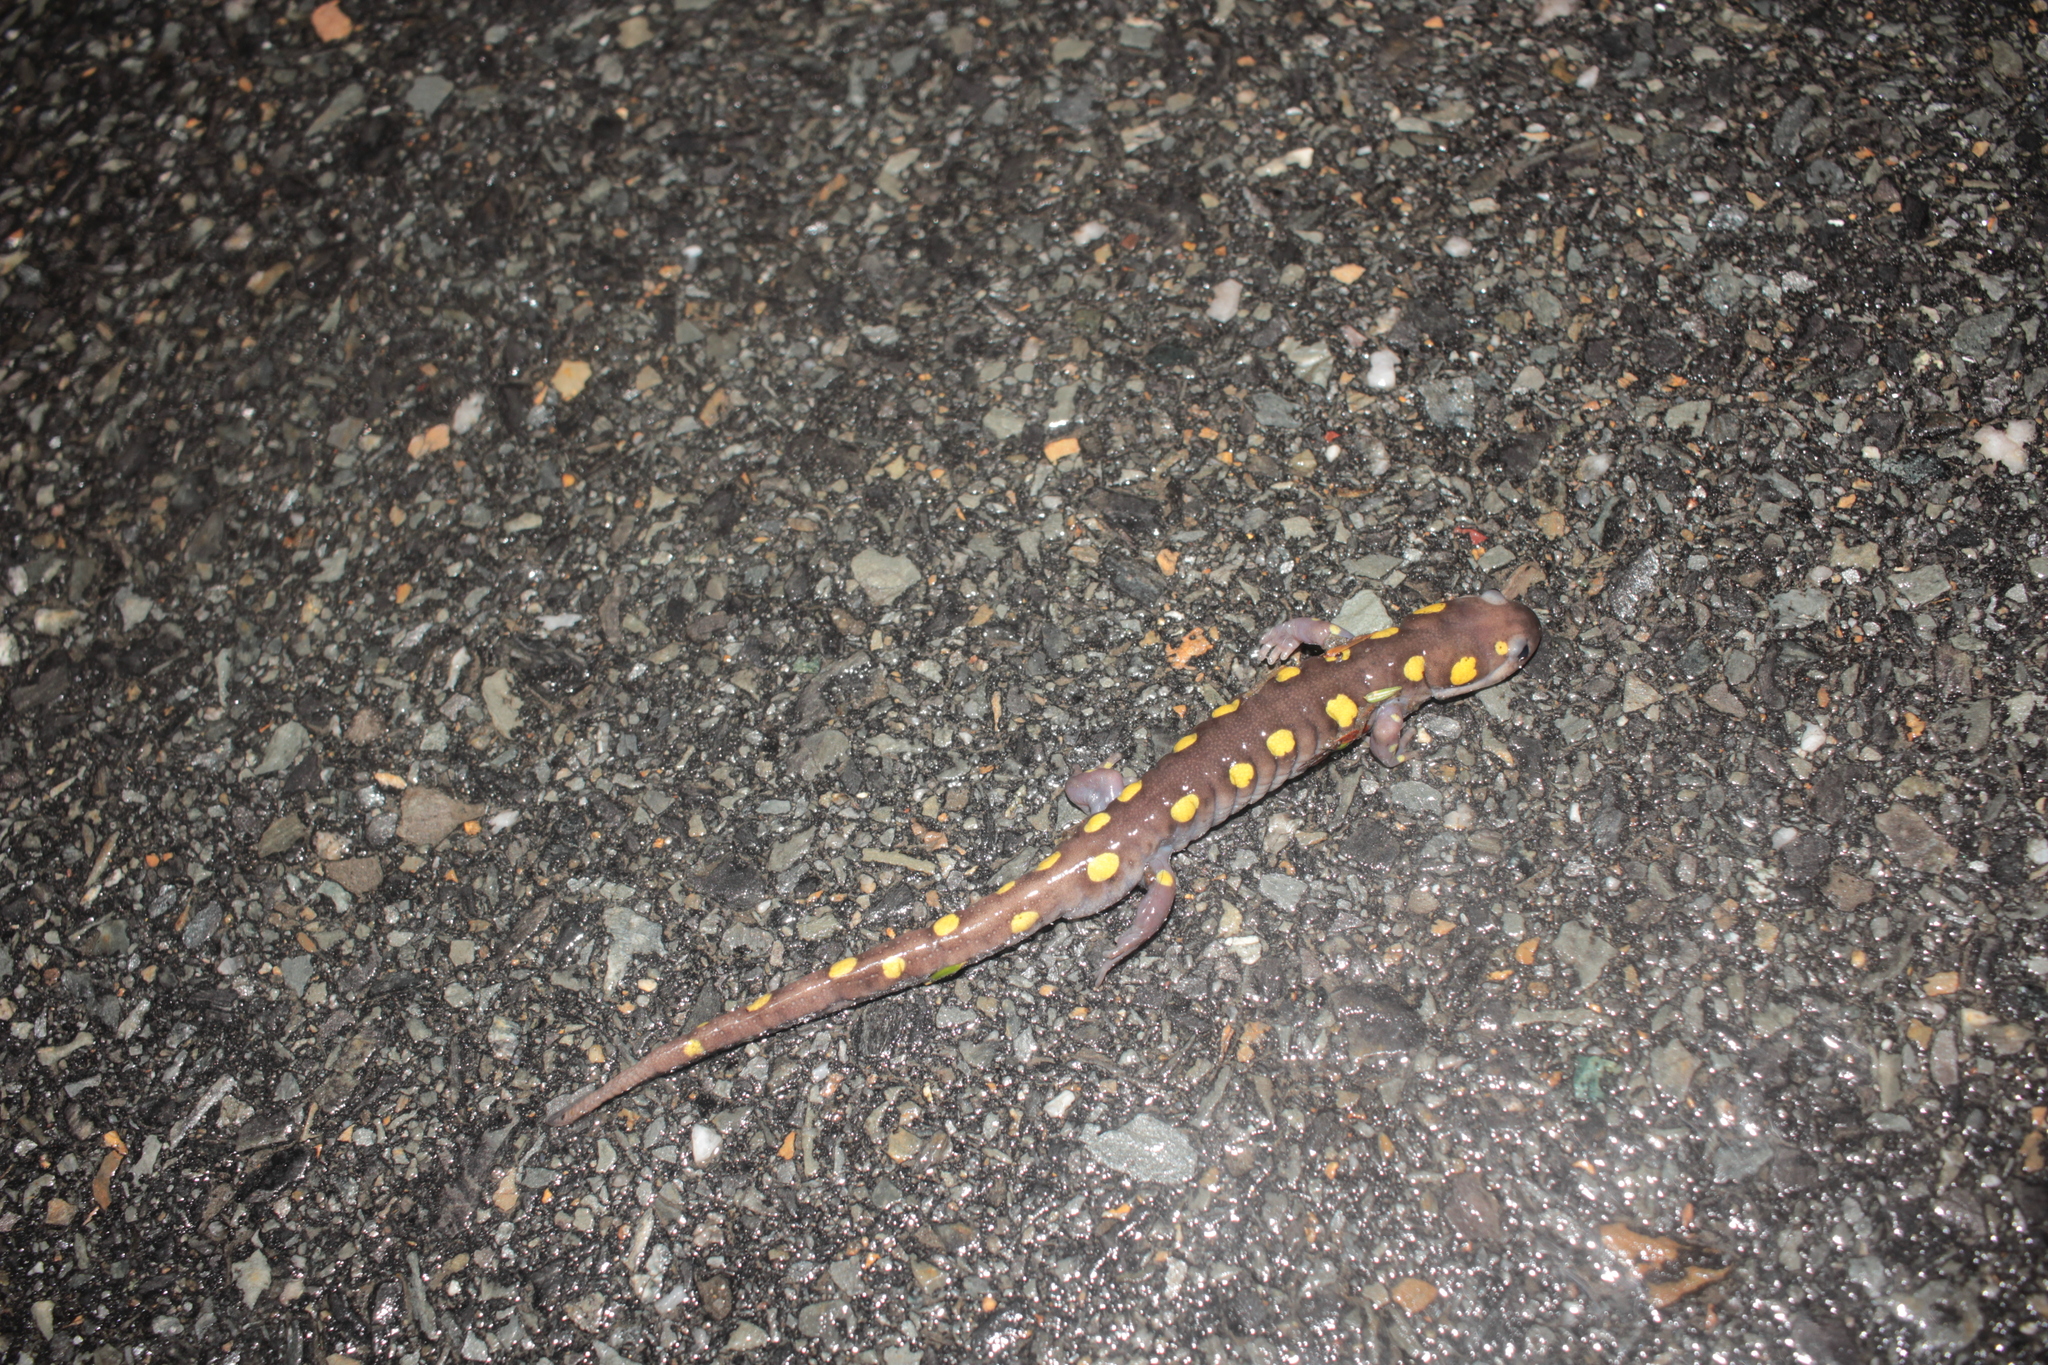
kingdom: Animalia
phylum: Chordata
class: Amphibia
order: Caudata
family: Ambystomatidae
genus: Ambystoma
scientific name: Ambystoma maculatum
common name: Spotted salamander
